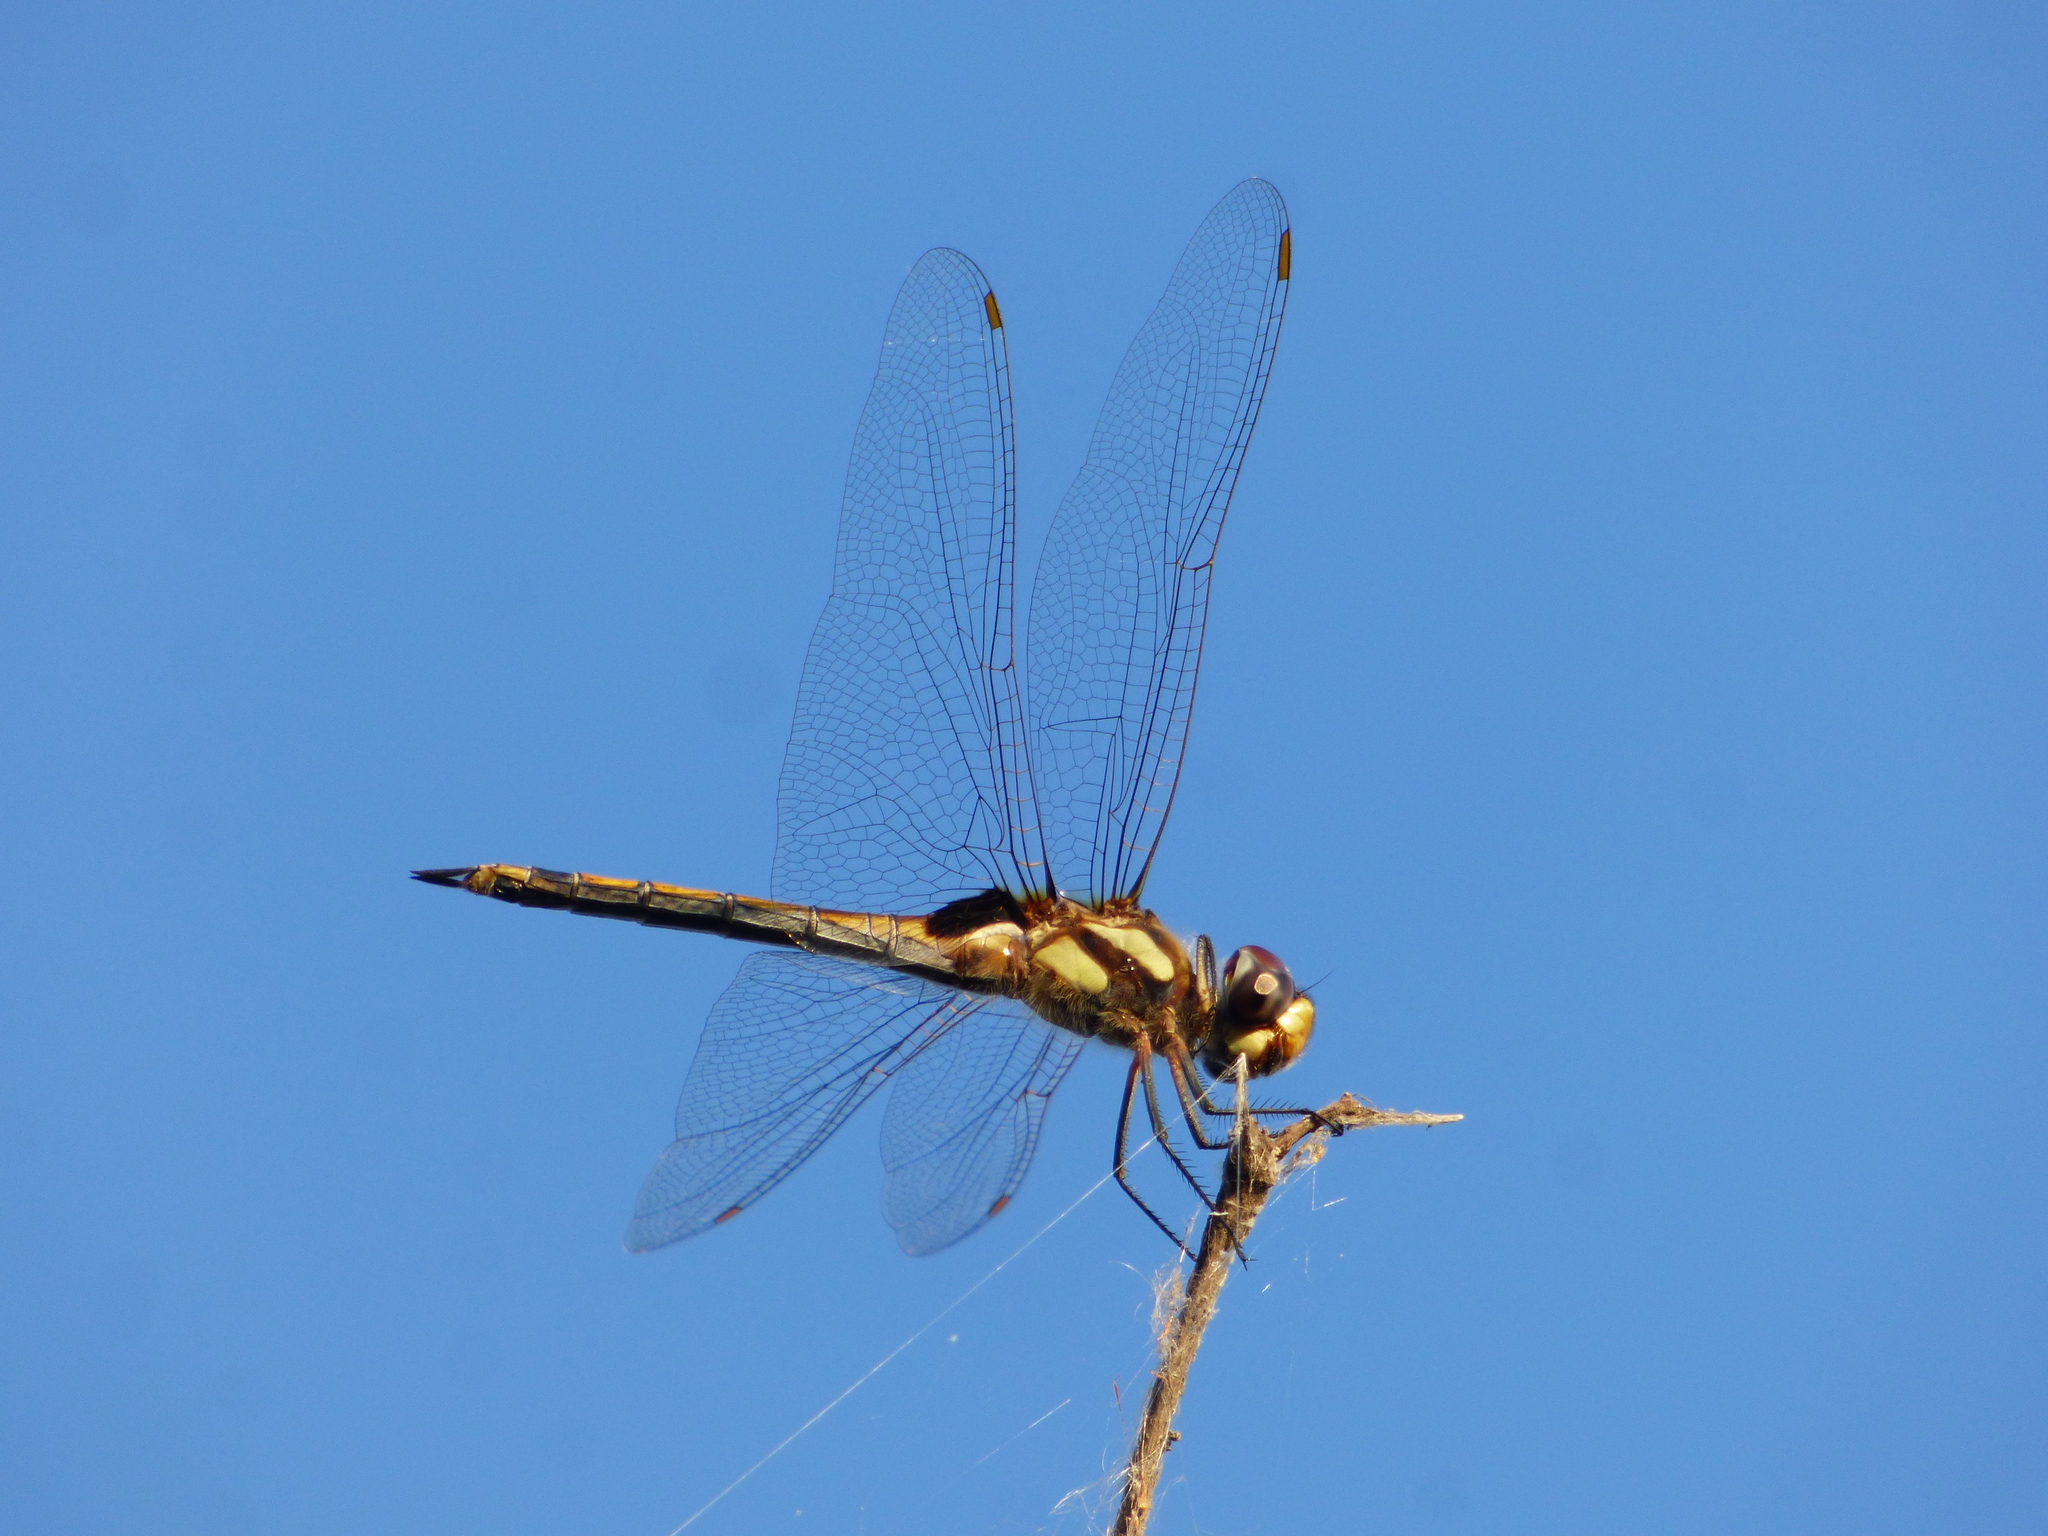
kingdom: Animalia
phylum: Arthropoda
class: Insecta
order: Odonata
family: Libellulidae
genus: Tramea
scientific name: Tramea cophysa
